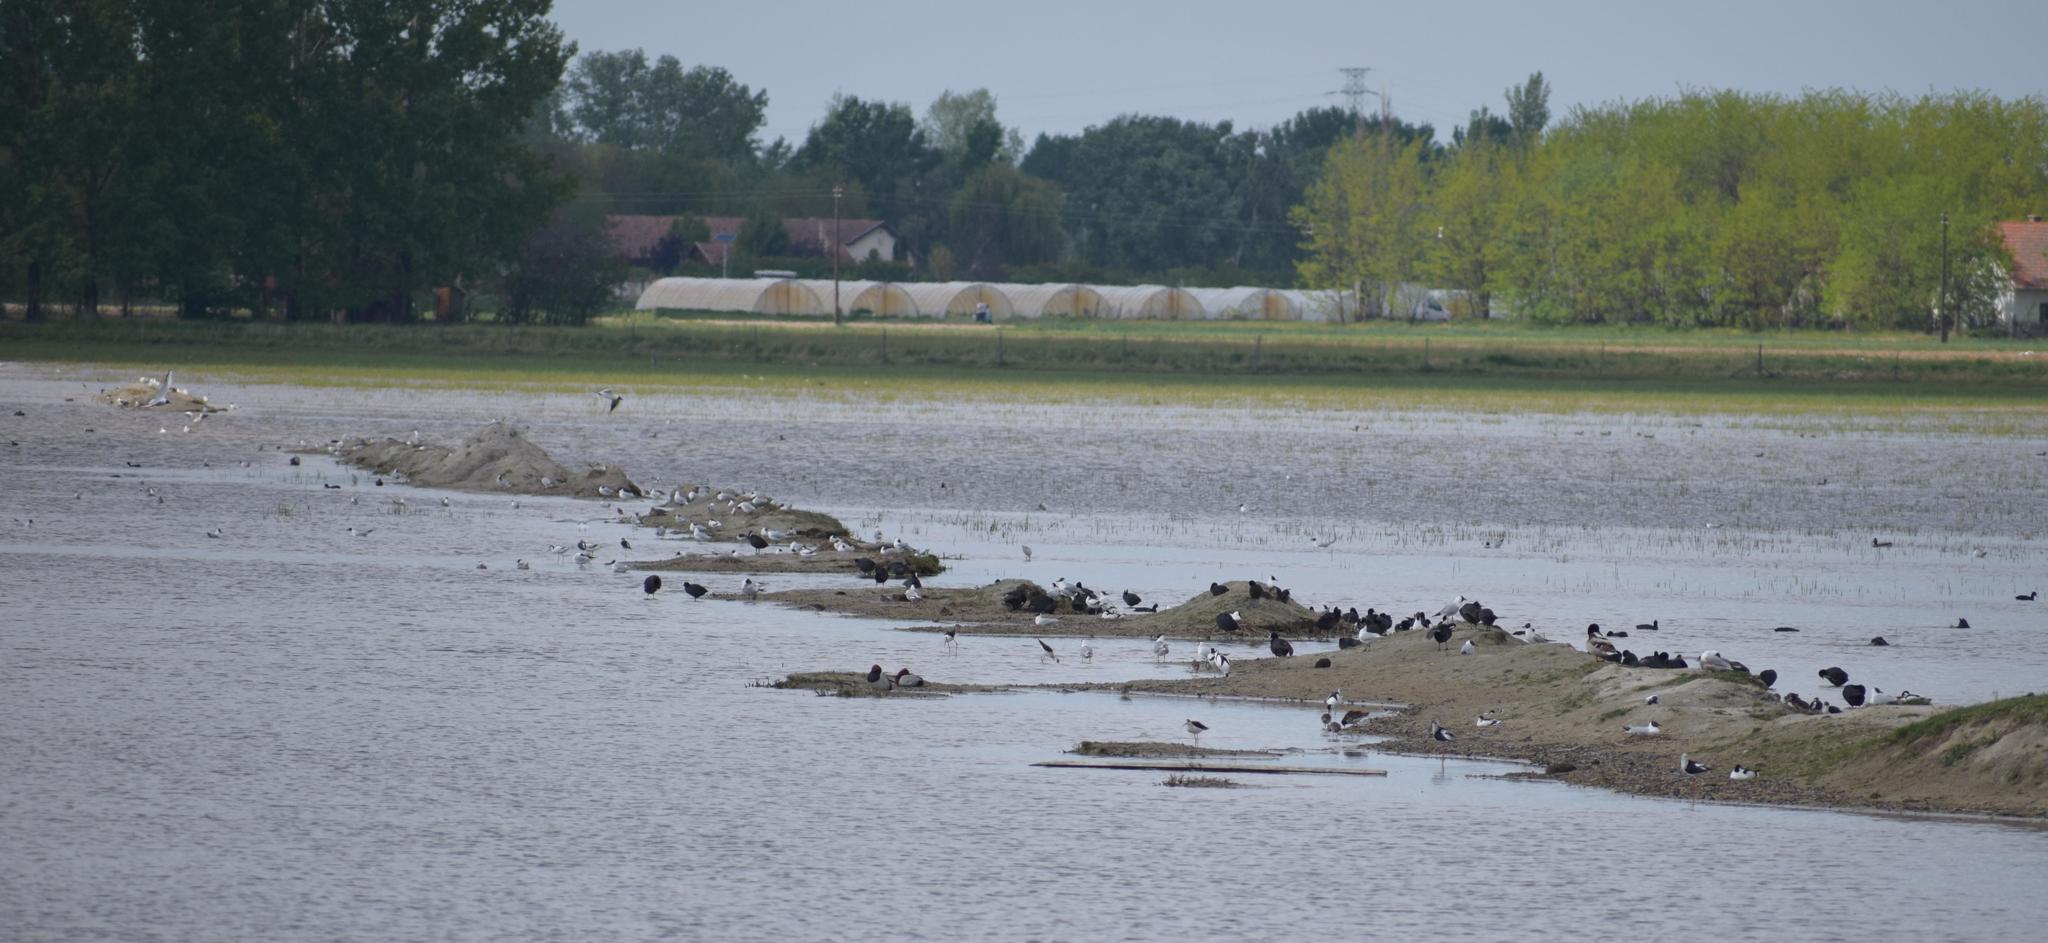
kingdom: Animalia
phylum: Chordata
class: Aves
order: Gruiformes
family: Rallidae
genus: Fulica
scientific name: Fulica atra
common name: Eurasian coot
